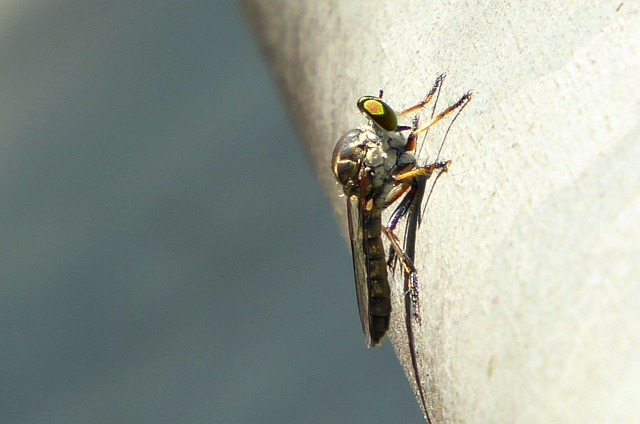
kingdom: Animalia
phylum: Arthropoda
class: Insecta
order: Diptera
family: Asilidae
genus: Ommatius
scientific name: Ommatius tibialis
